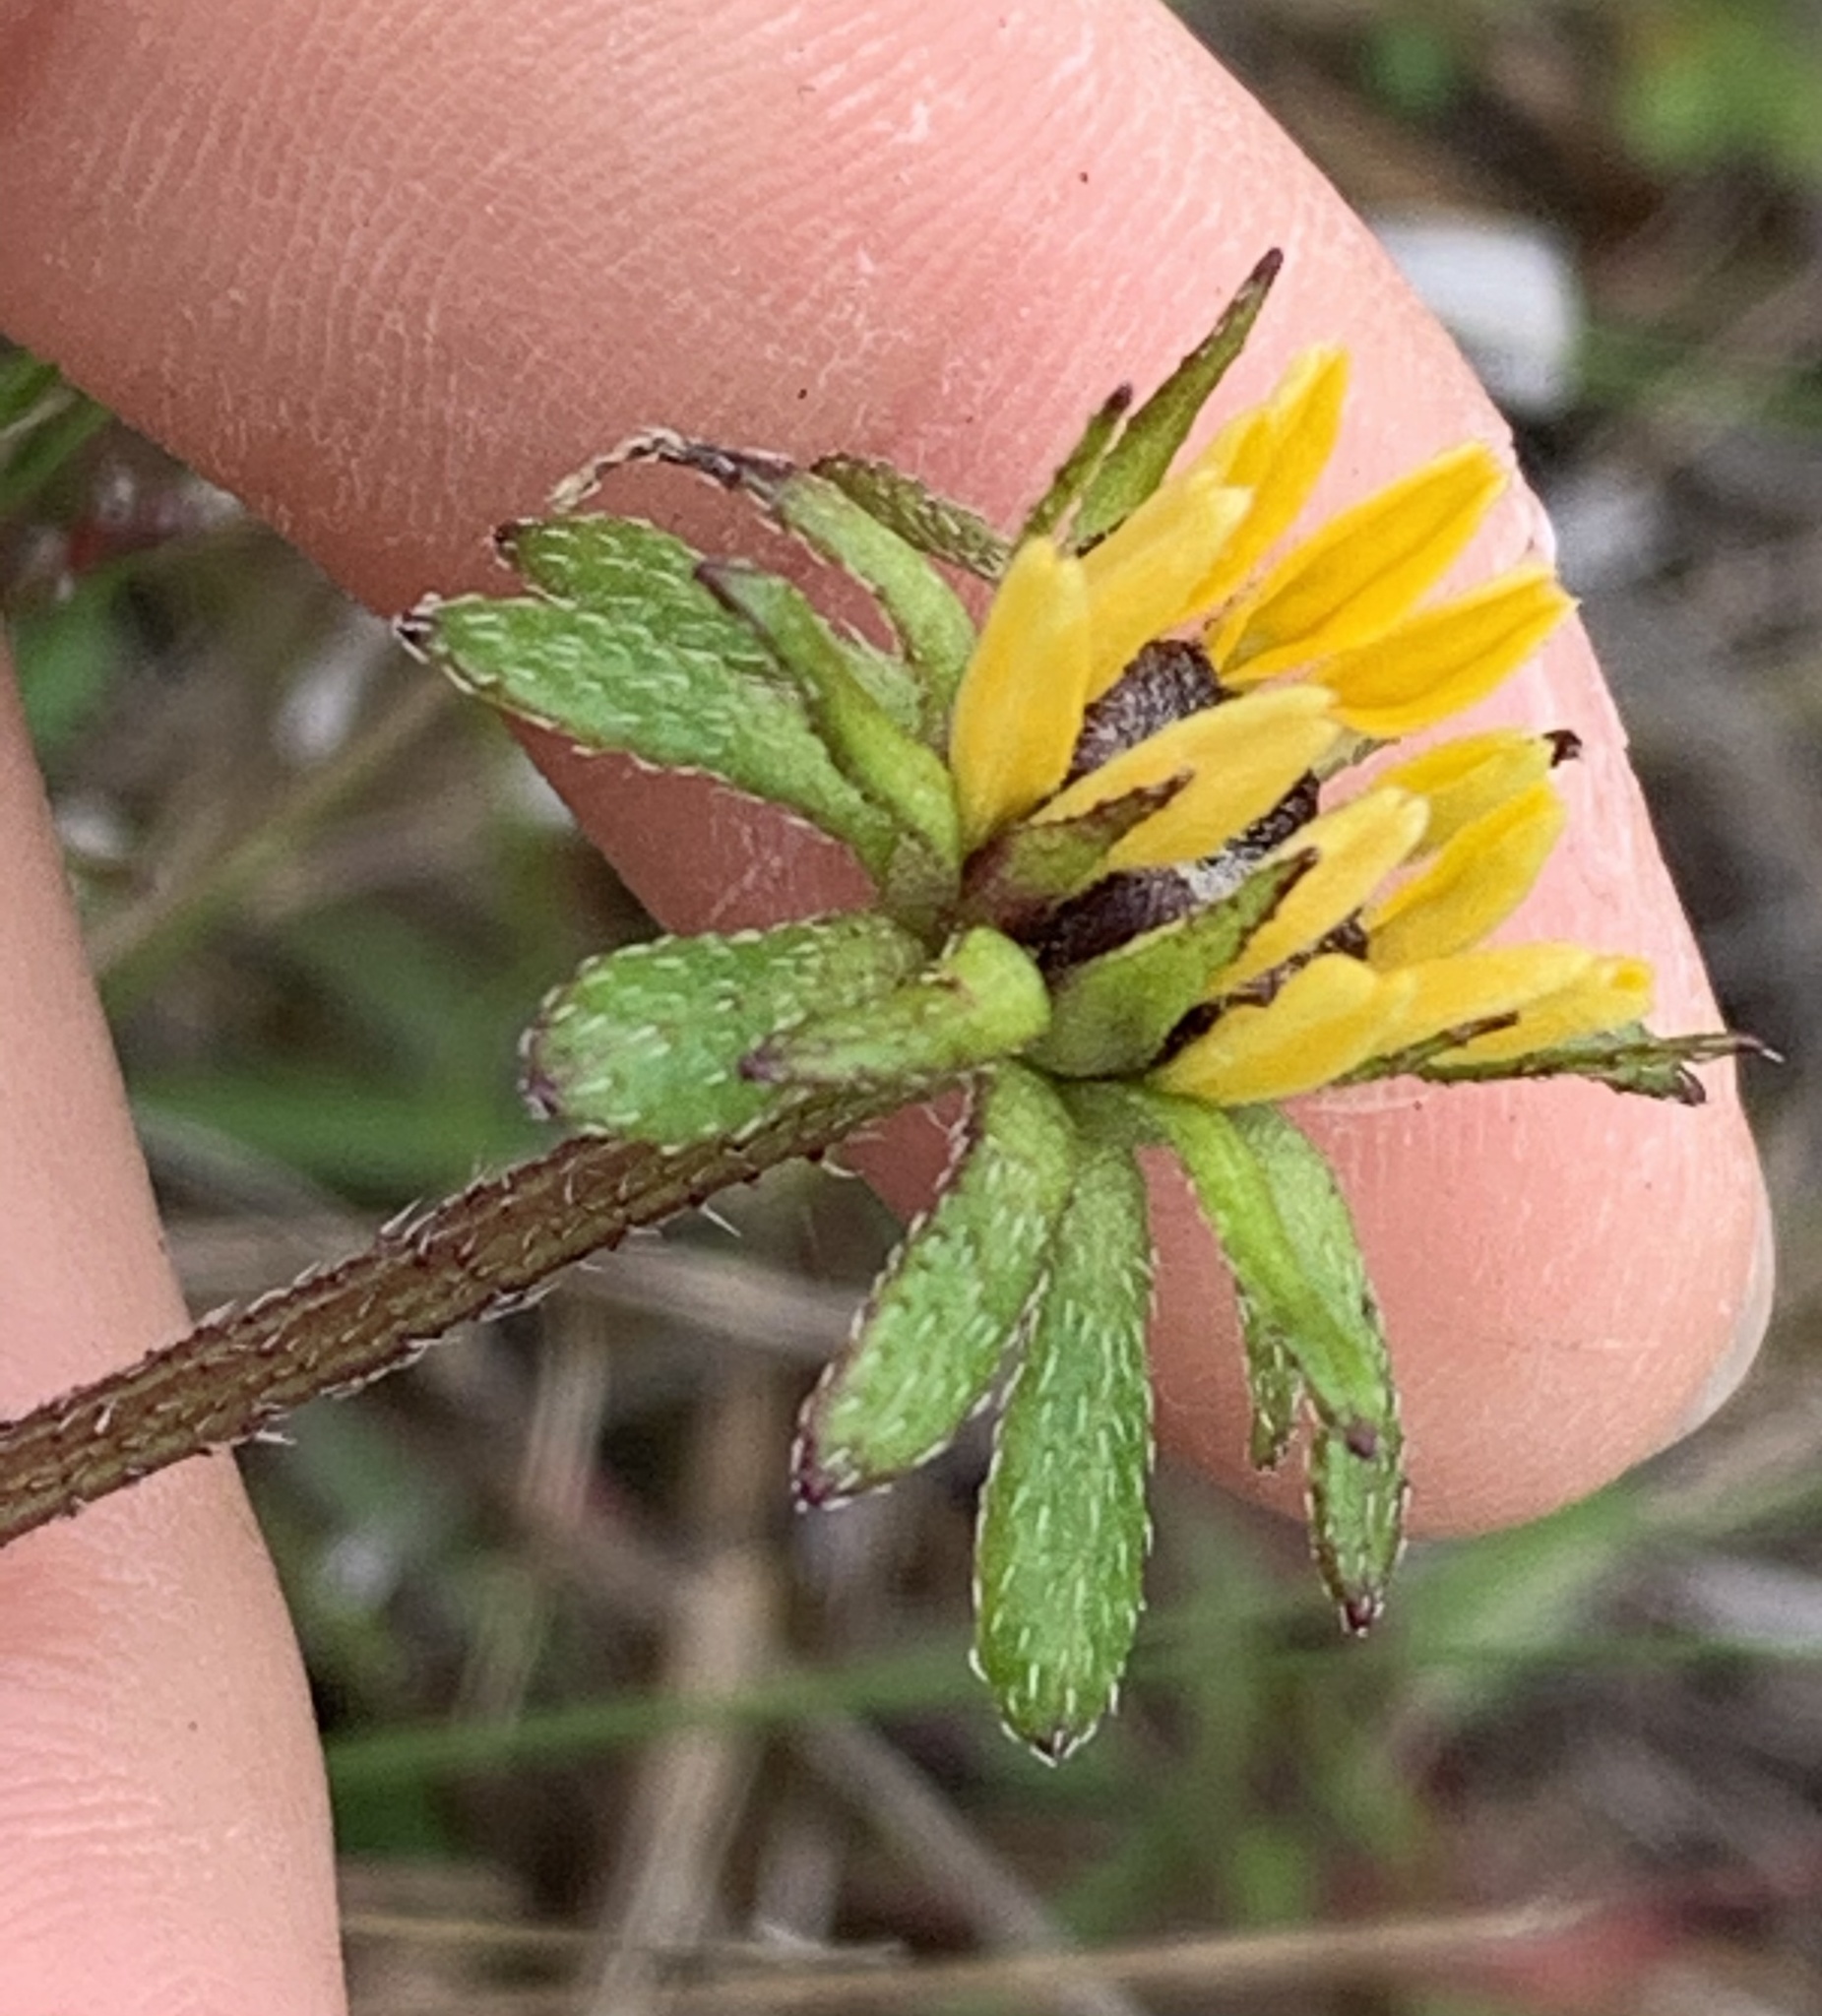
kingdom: Plantae
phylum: Tracheophyta
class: Magnoliopsida
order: Asterales
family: Asteraceae
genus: Rudbeckia
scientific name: Rudbeckia hirta
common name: Black-eyed-susan
